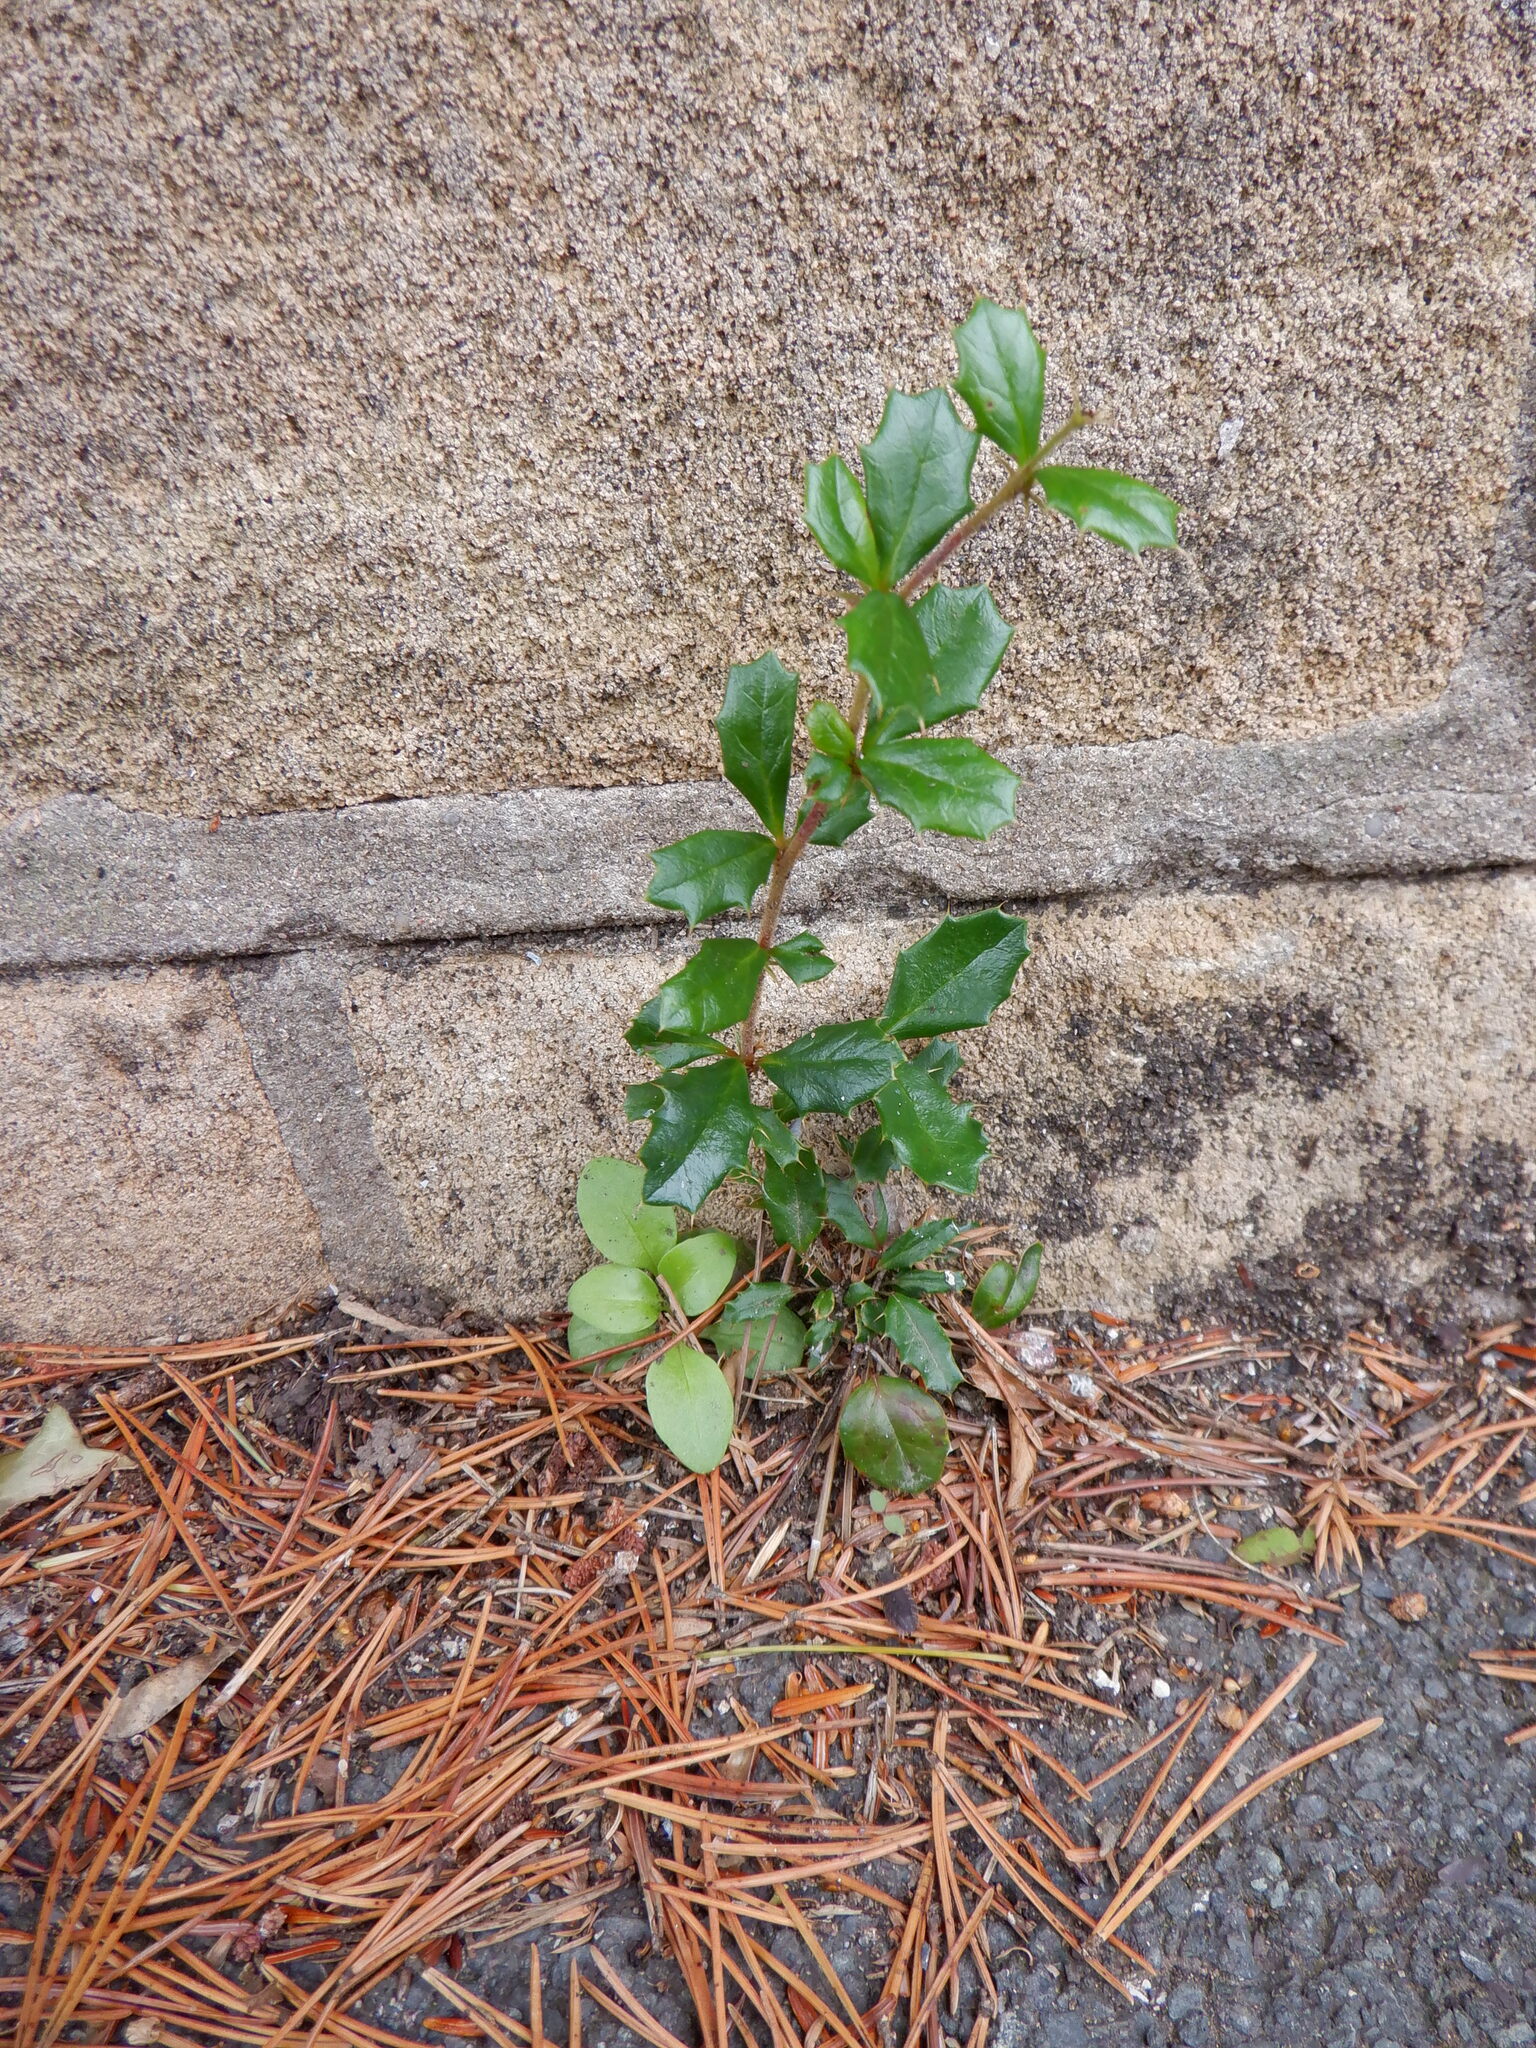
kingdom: Plantae
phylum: Tracheophyta
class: Magnoliopsida
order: Ranunculales
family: Berberidaceae
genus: Berberis
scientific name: Berberis darwinii
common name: Darwin's barberry
